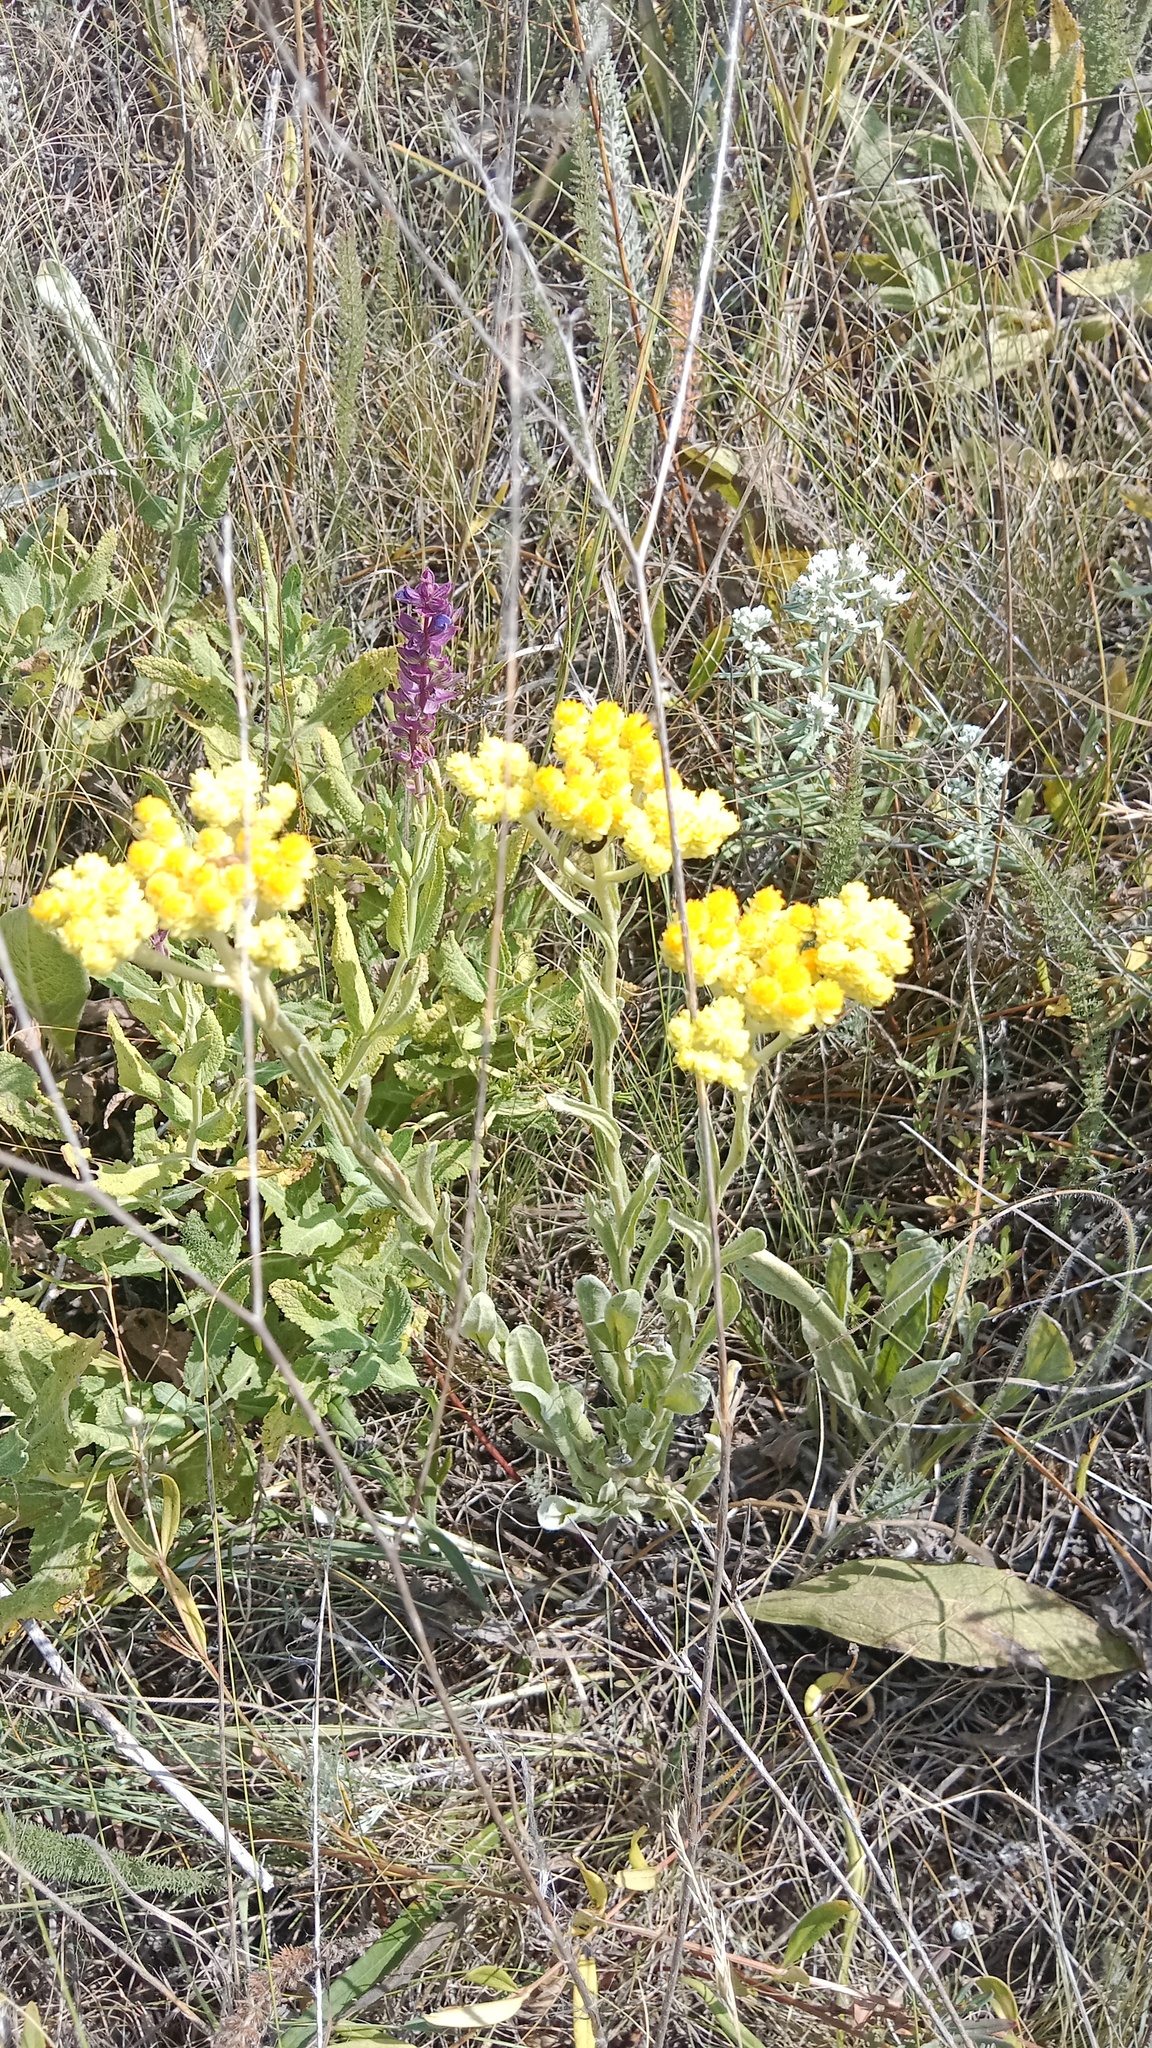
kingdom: Plantae
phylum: Tracheophyta
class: Magnoliopsida
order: Asterales
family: Asteraceae
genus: Helichrysum
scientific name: Helichrysum arenarium
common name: Strawflower
